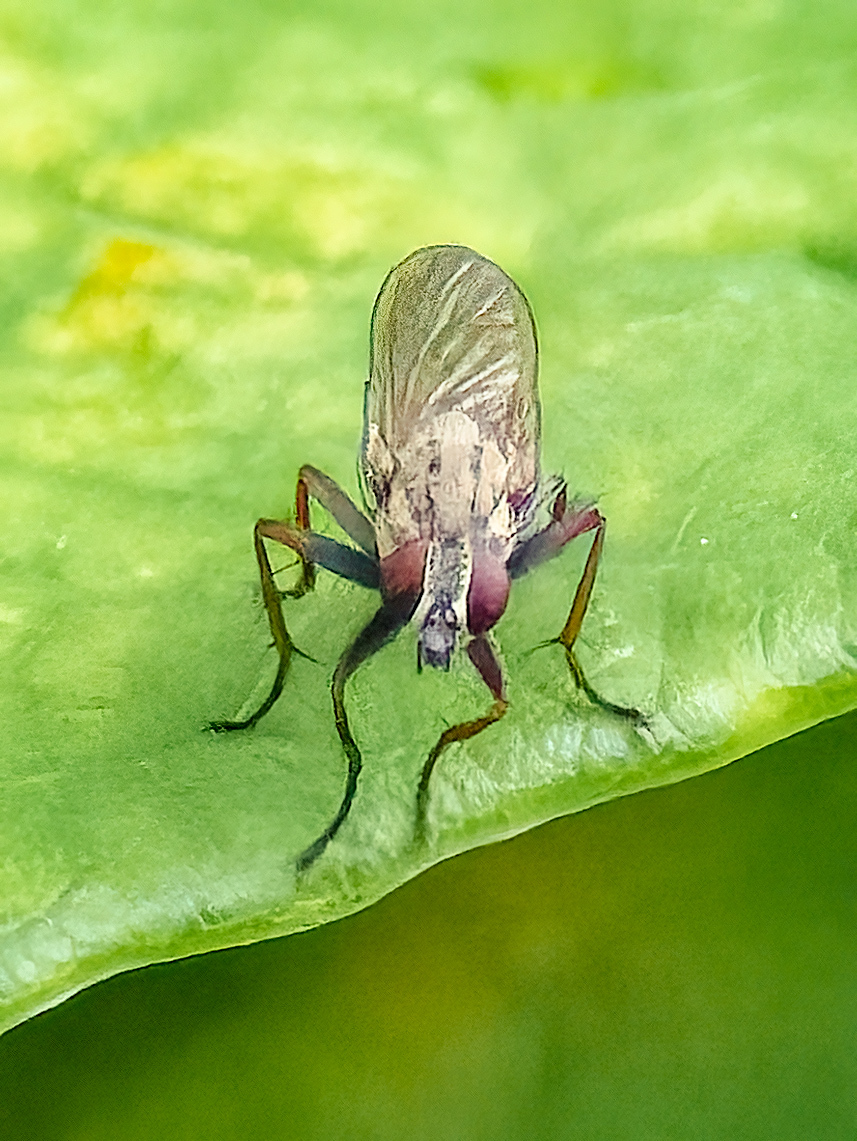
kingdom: Animalia
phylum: Arthropoda
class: Insecta
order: Diptera
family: Muscidae
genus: Coenosia
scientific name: Coenosia tigrina
